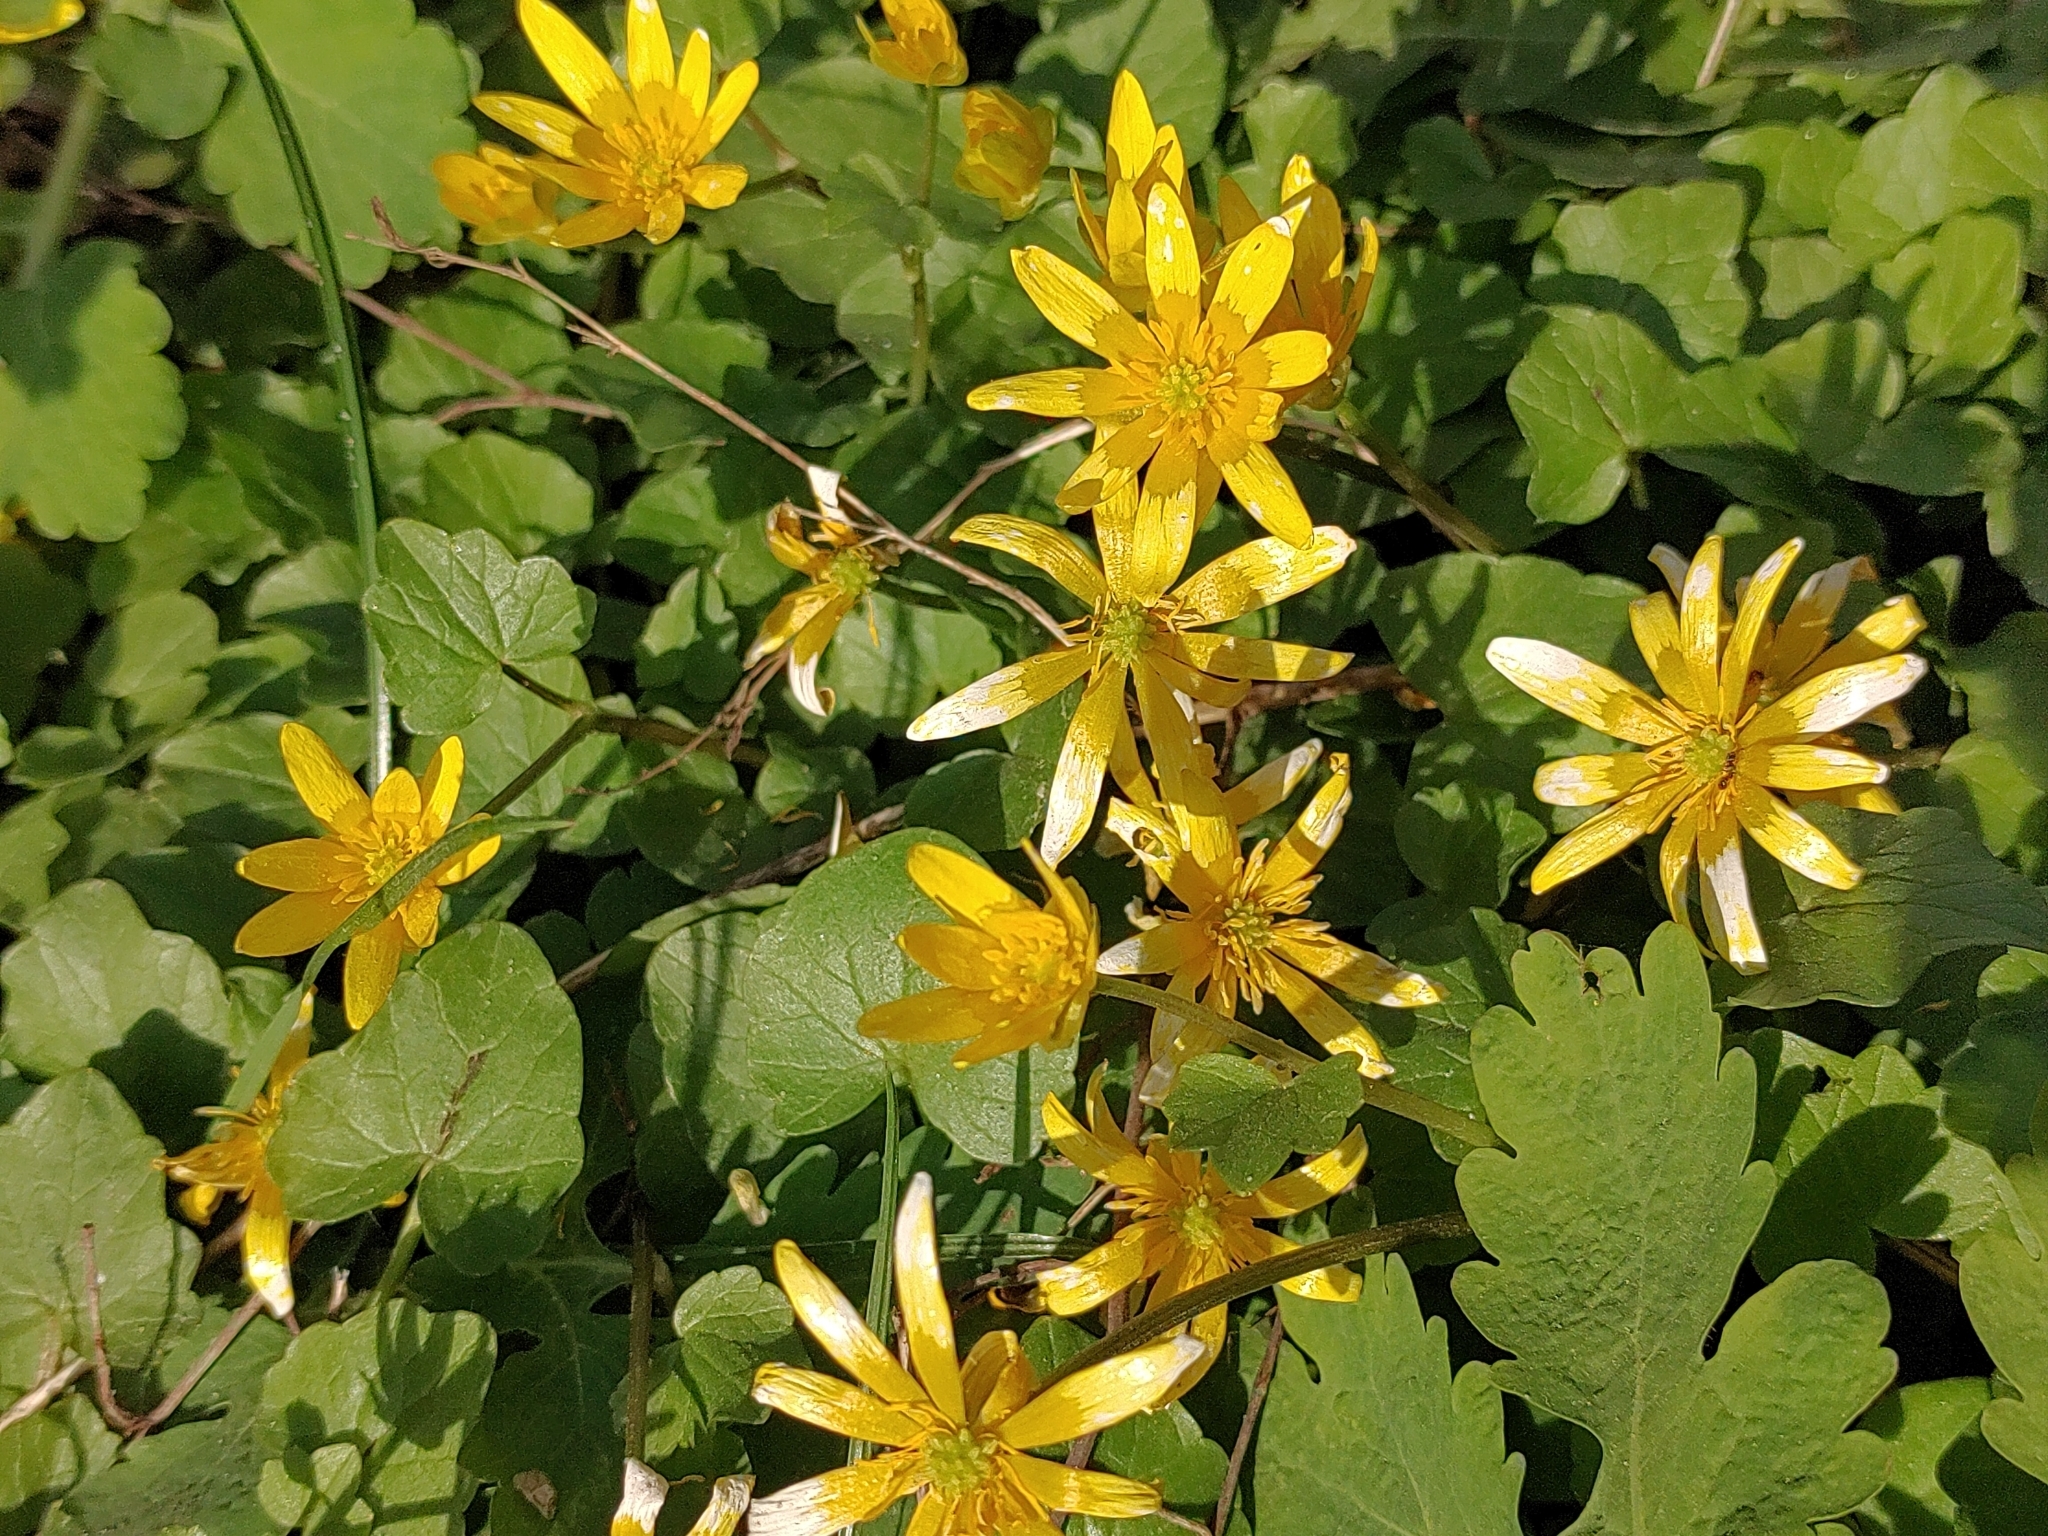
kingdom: Plantae
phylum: Tracheophyta
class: Magnoliopsida
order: Ranunculales
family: Ranunculaceae
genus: Ficaria
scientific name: Ficaria verna
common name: Lesser celandine
